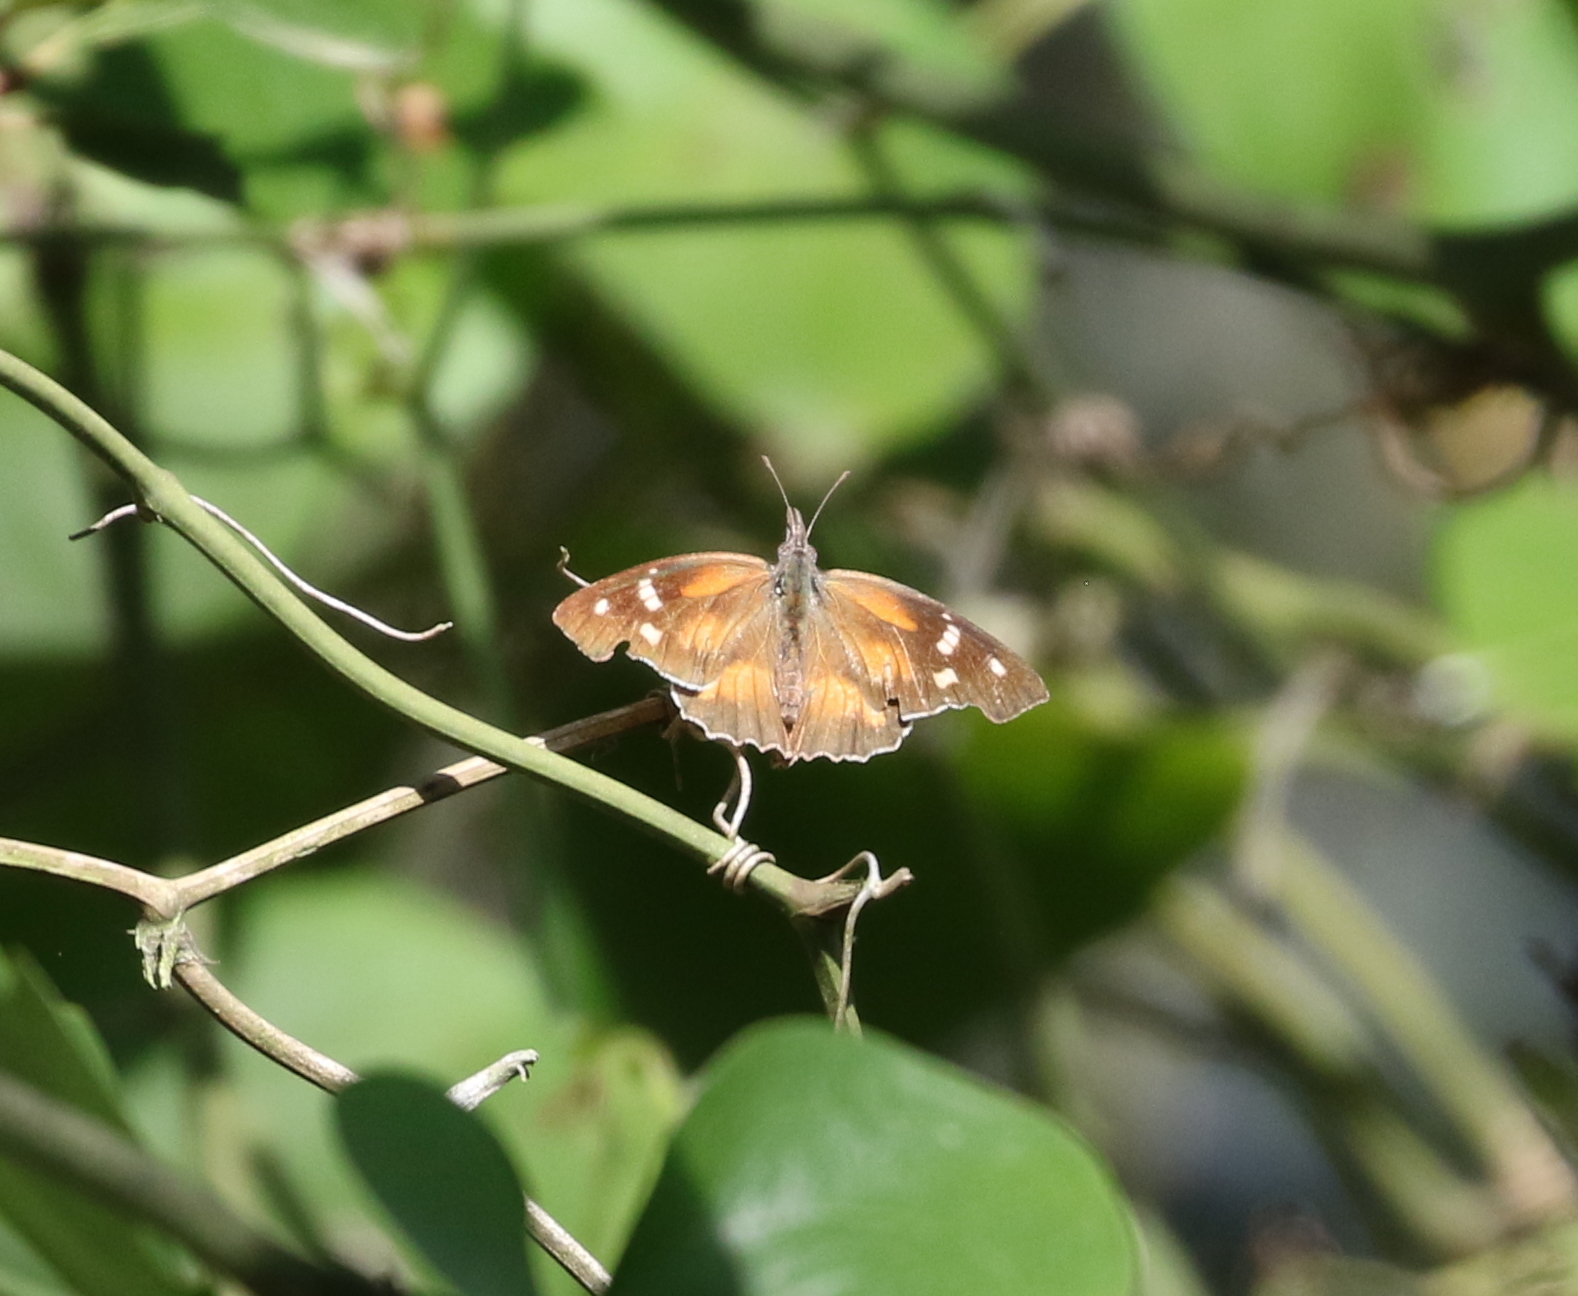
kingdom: Animalia
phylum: Arthropoda
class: Insecta
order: Lepidoptera
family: Nymphalidae
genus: Libytheana
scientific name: Libytheana carinenta
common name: American snout
